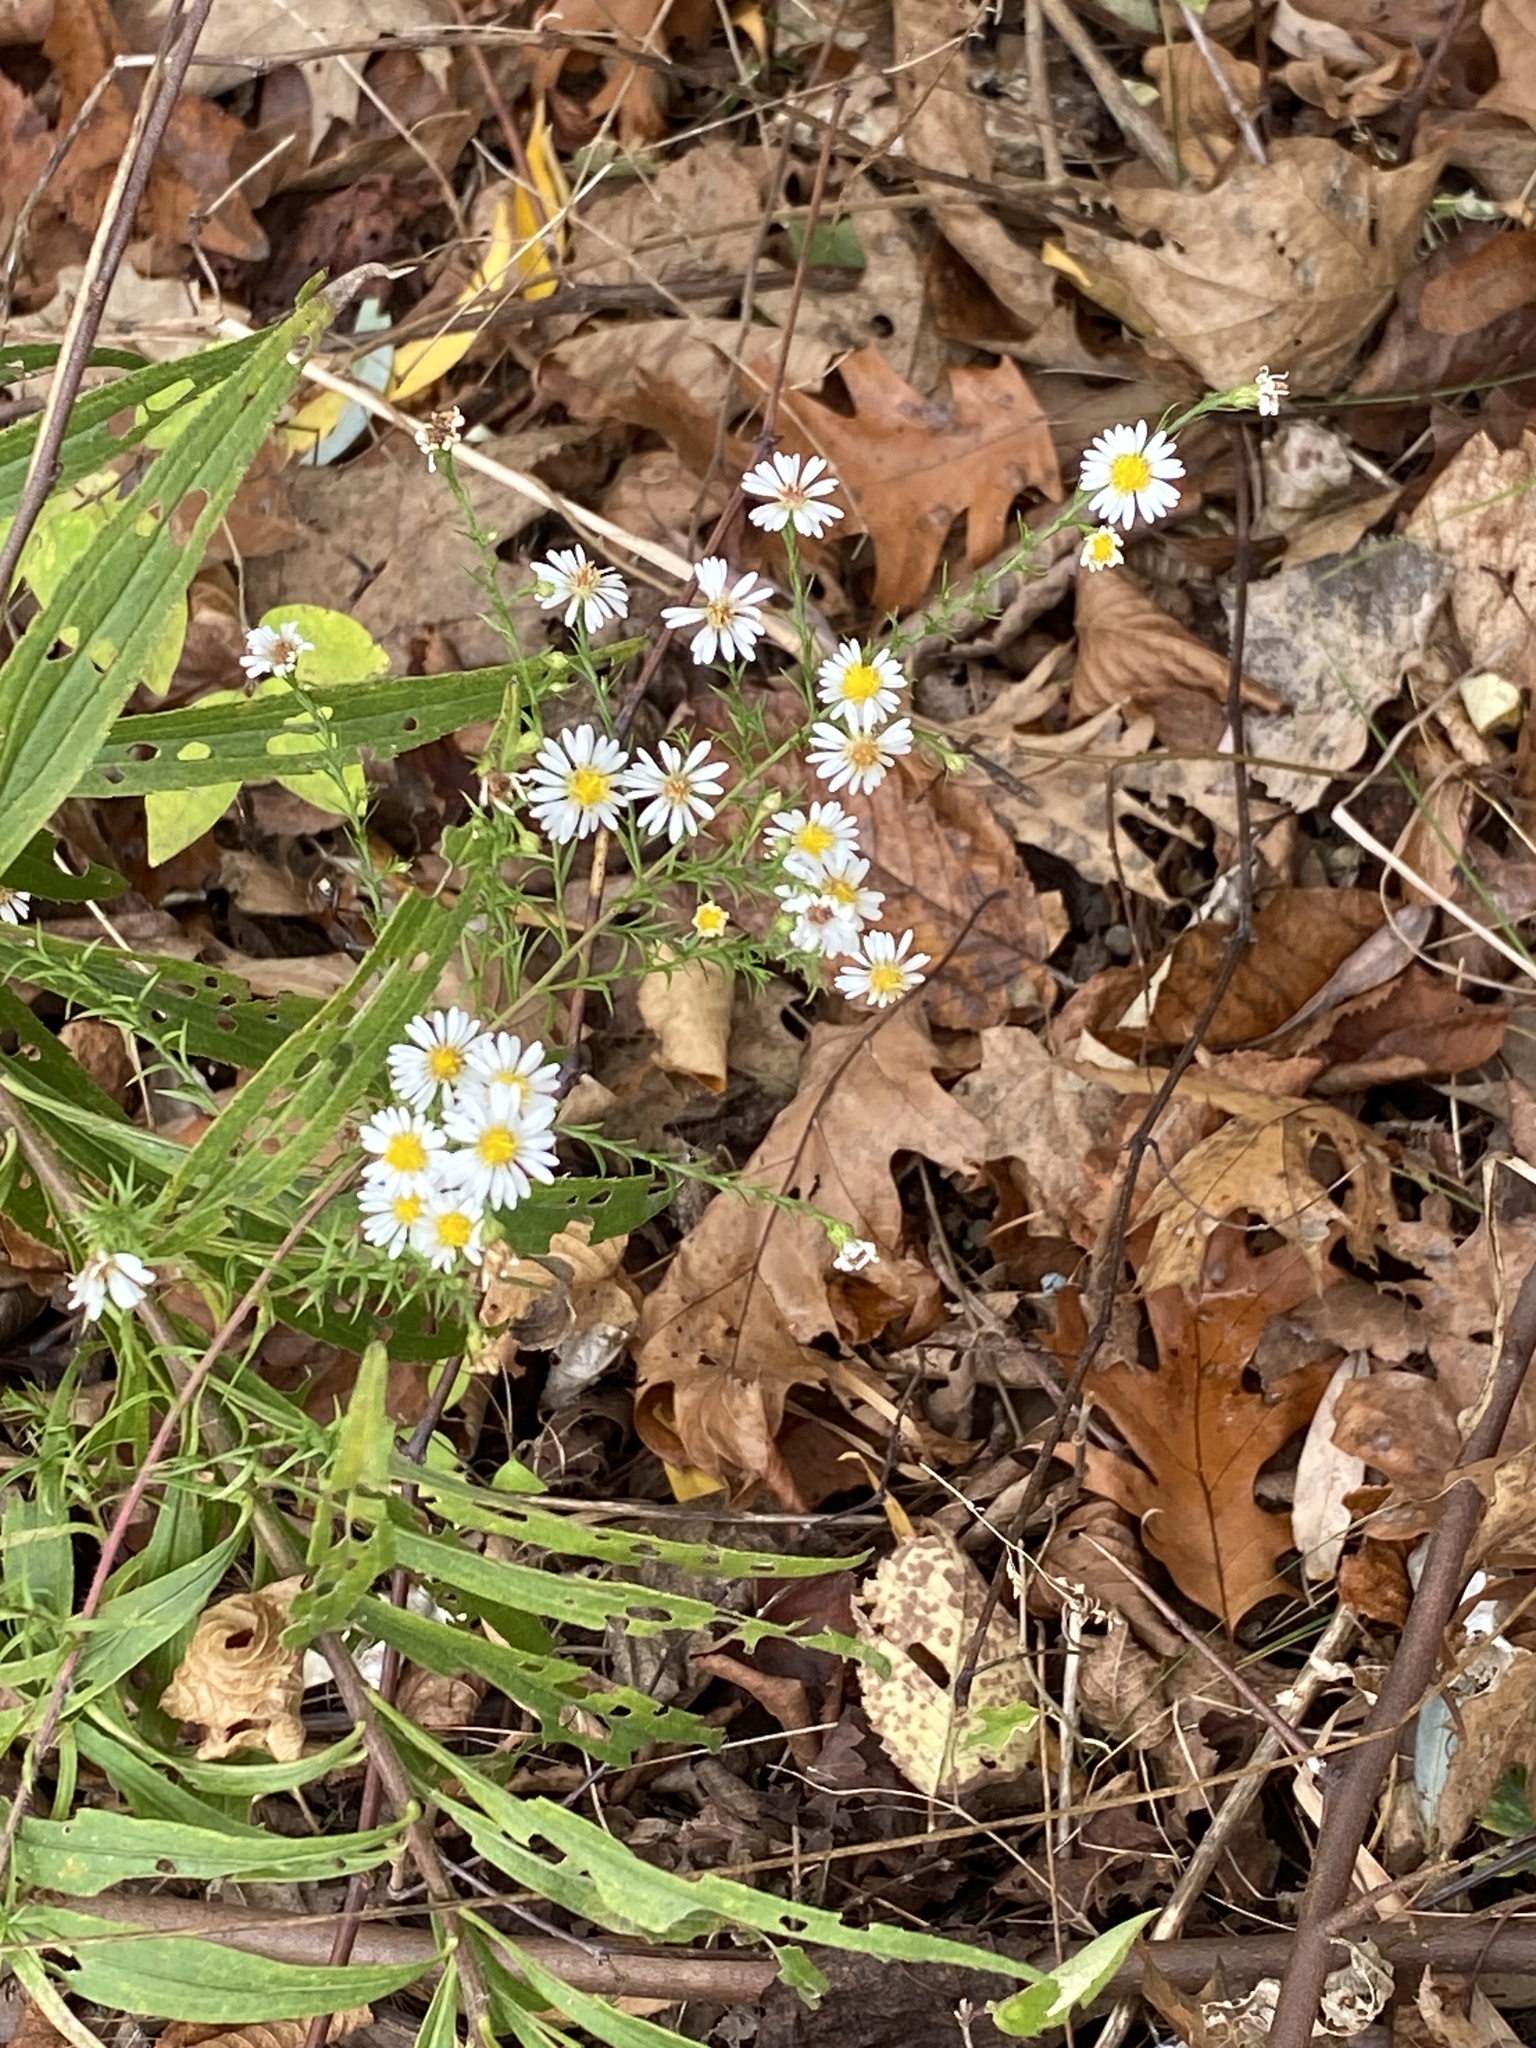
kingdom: Plantae
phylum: Tracheophyta
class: Magnoliopsida
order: Asterales
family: Asteraceae
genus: Symphyotrichum
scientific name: Symphyotrichum pilosum
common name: Awl aster
